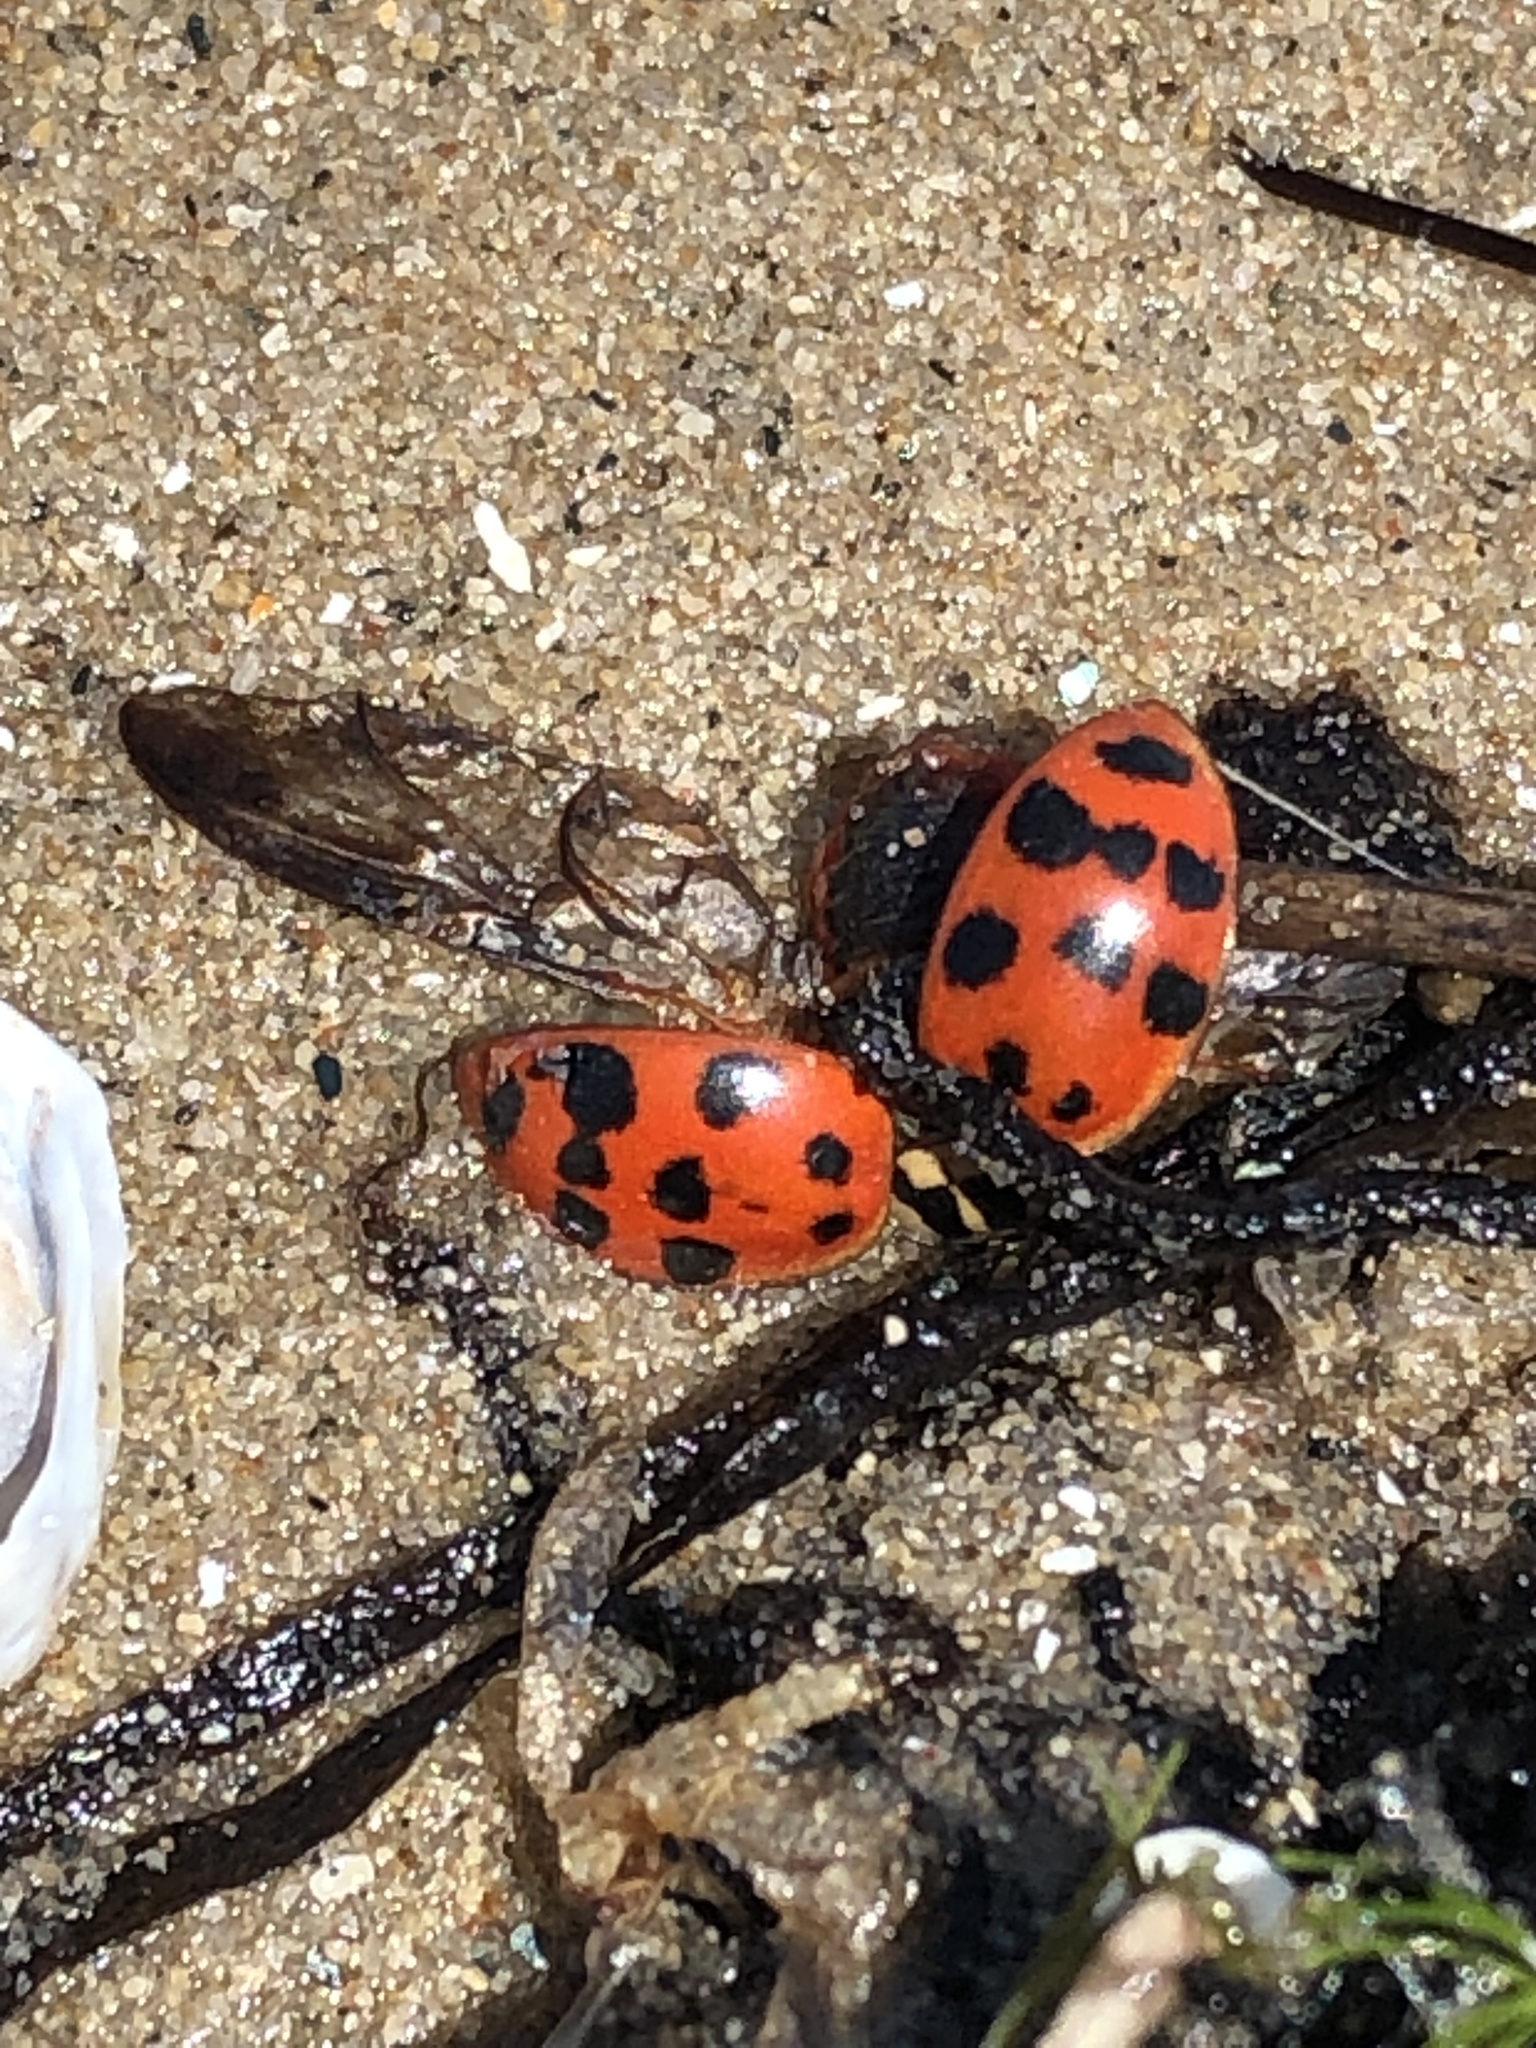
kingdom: Animalia
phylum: Arthropoda
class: Insecta
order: Coleoptera
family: Coccinellidae
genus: Harmonia
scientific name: Harmonia axyridis
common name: Harlequin ladybird
